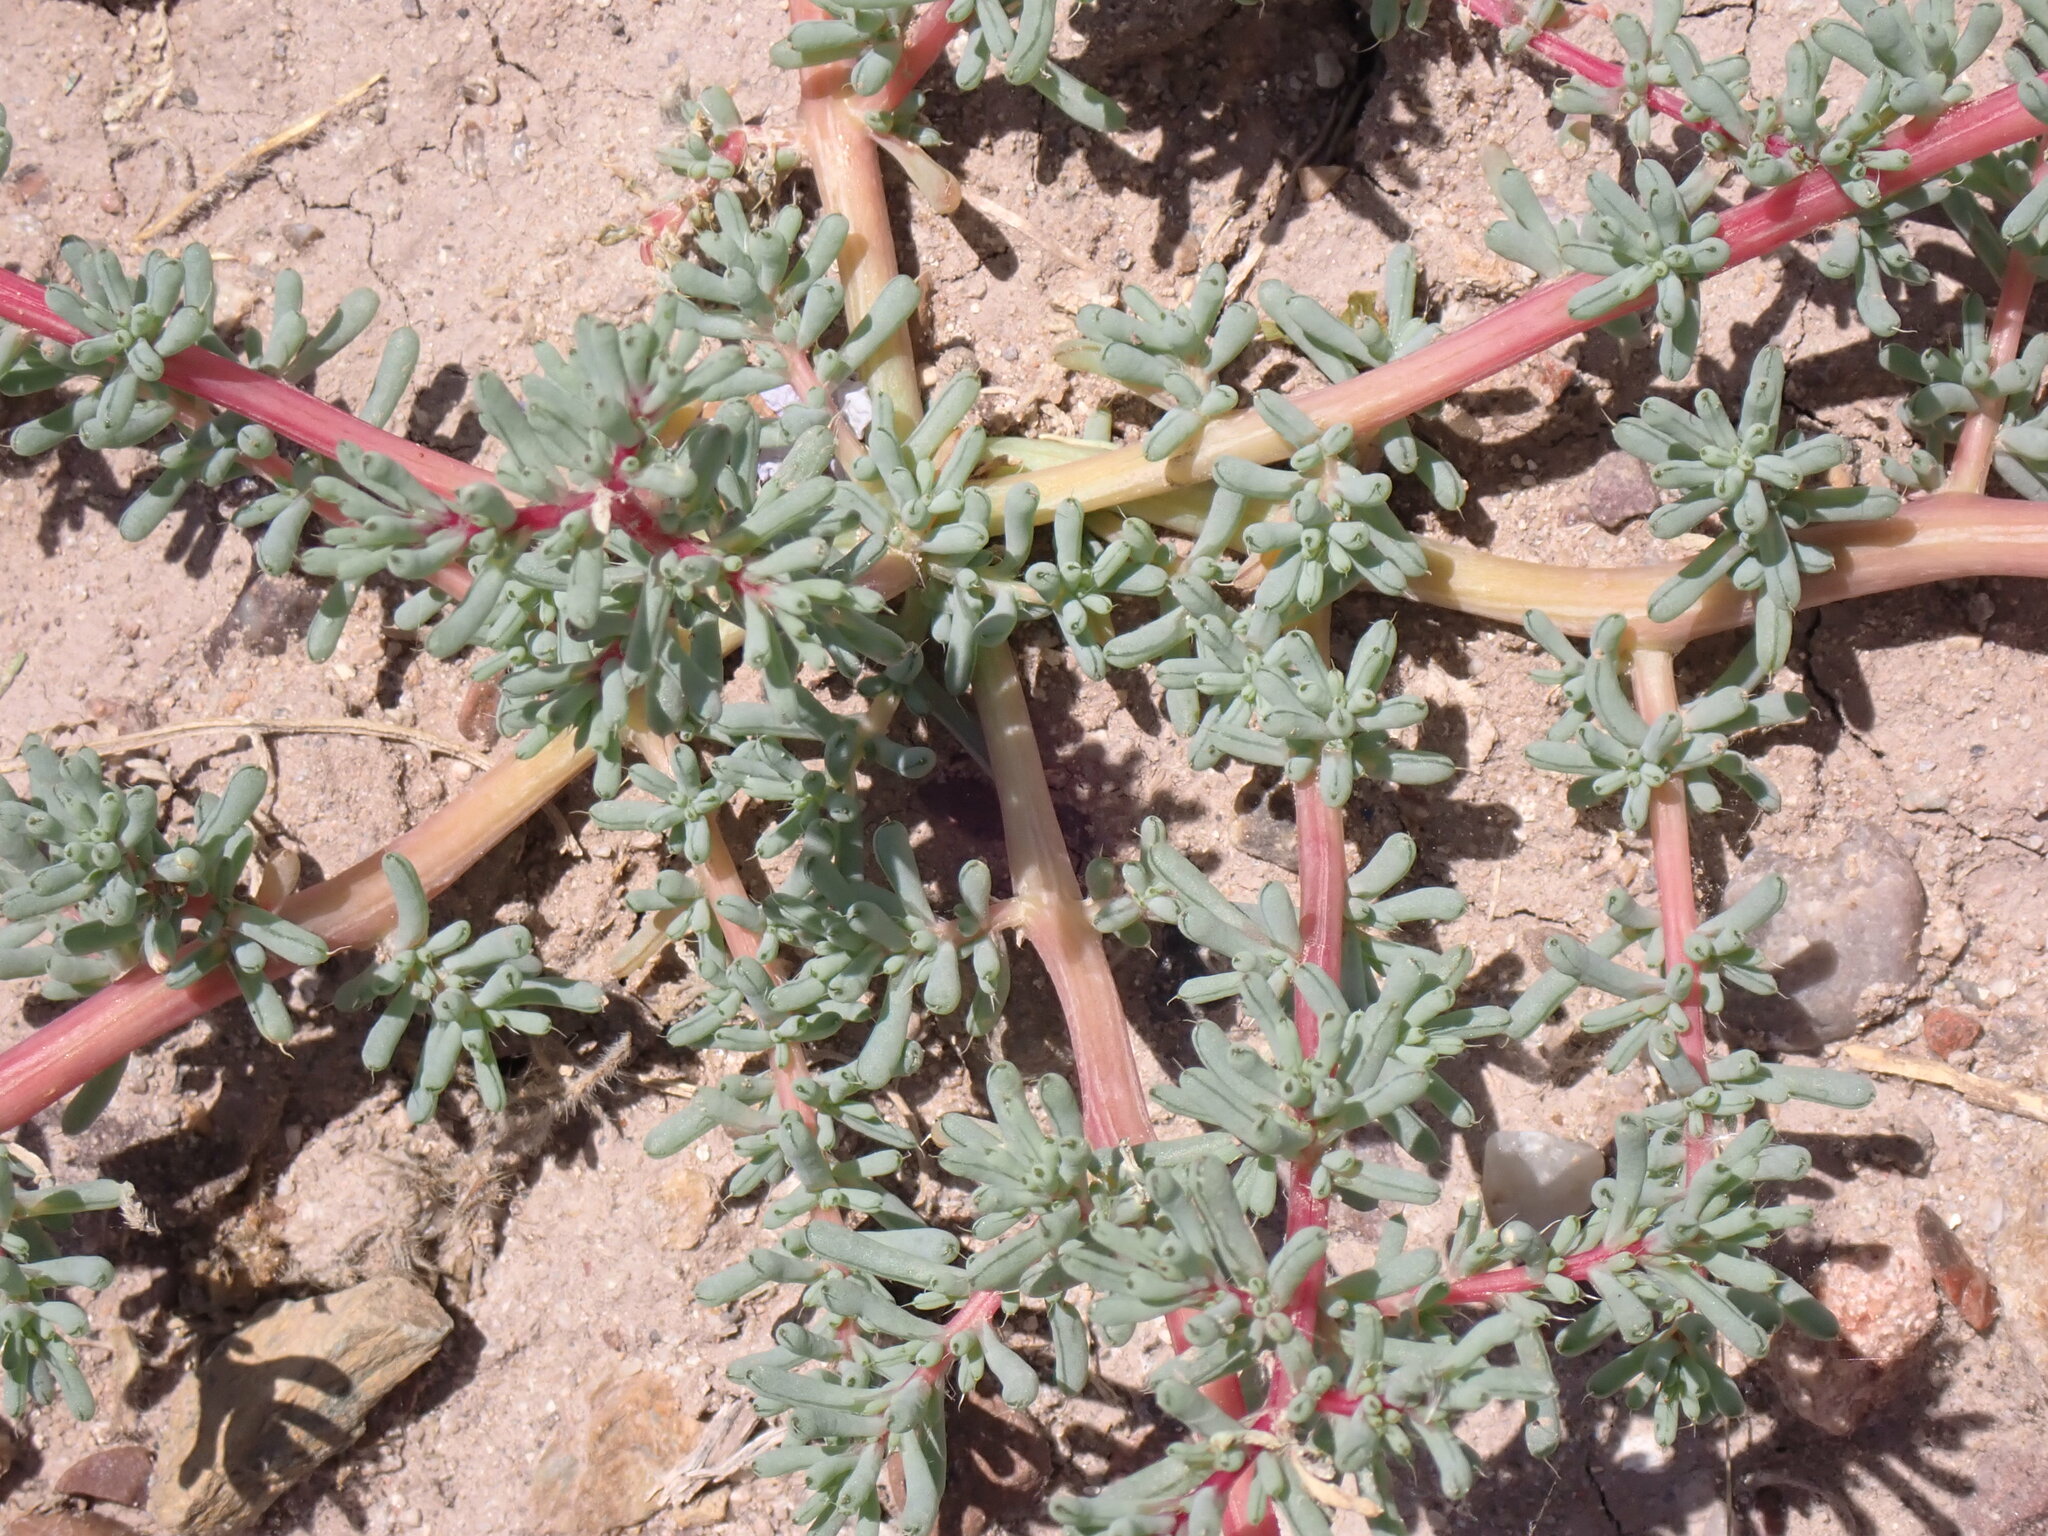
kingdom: Plantae
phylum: Tracheophyta
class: Magnoliopsida
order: Caryophyllales
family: Amaranthaceae
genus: Halogeton
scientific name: Halogeton glomeratus
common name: Saltlover
